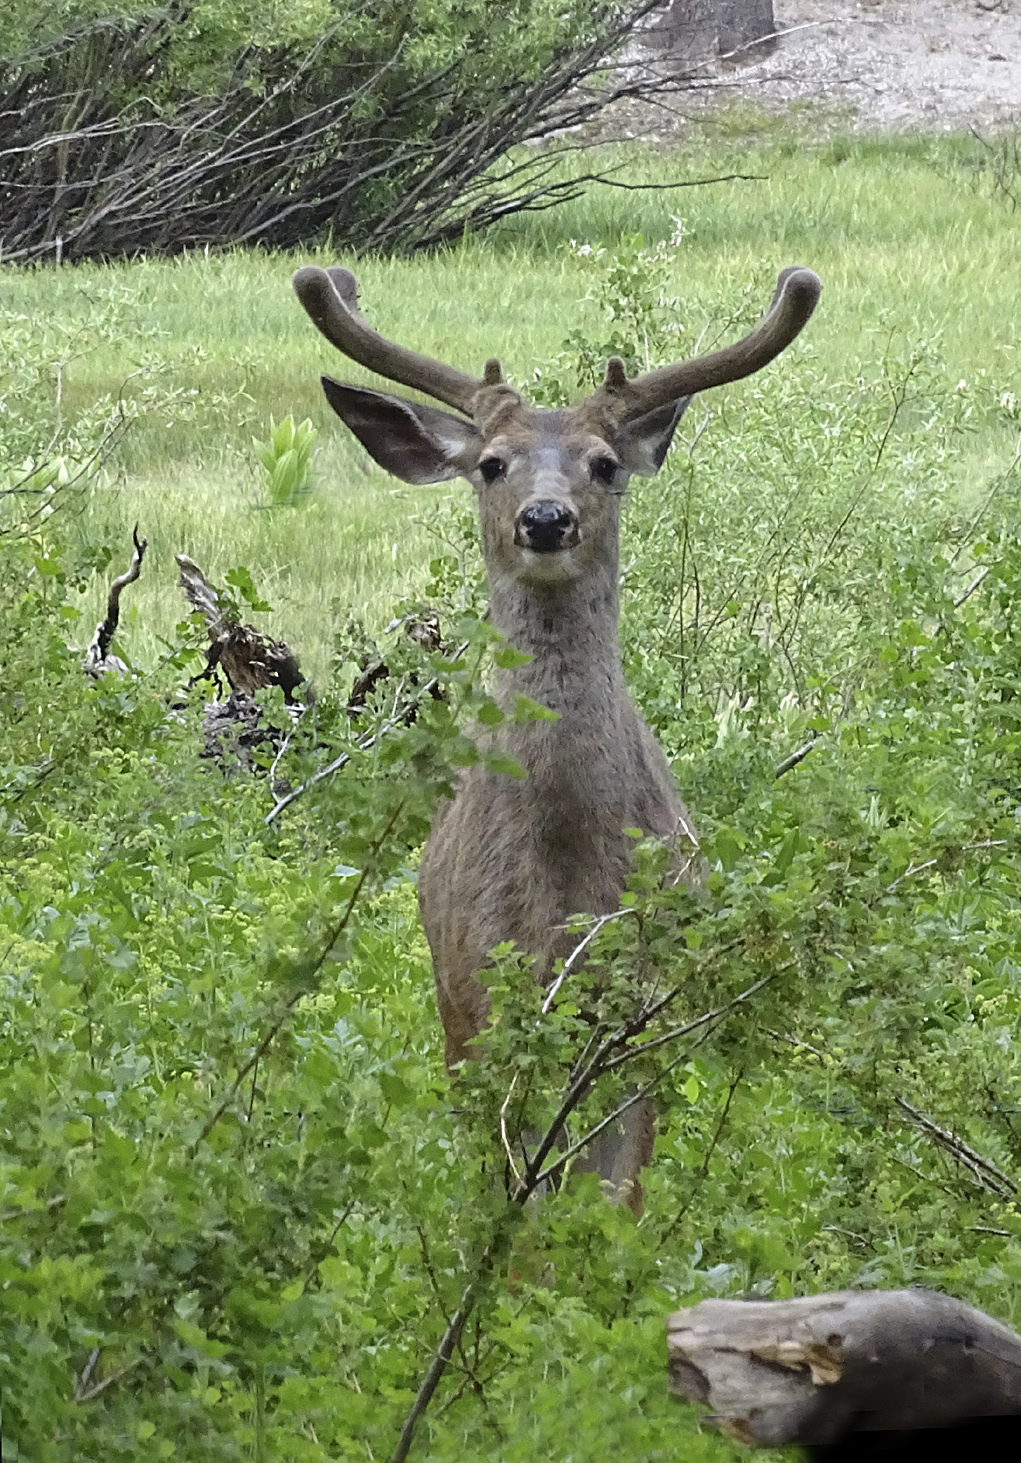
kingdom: Animalia
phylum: Chordata
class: Mammalia
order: Artiodactyla
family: Cervidae
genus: Odocoileus
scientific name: Odocoileus hemionus
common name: Mule deer
